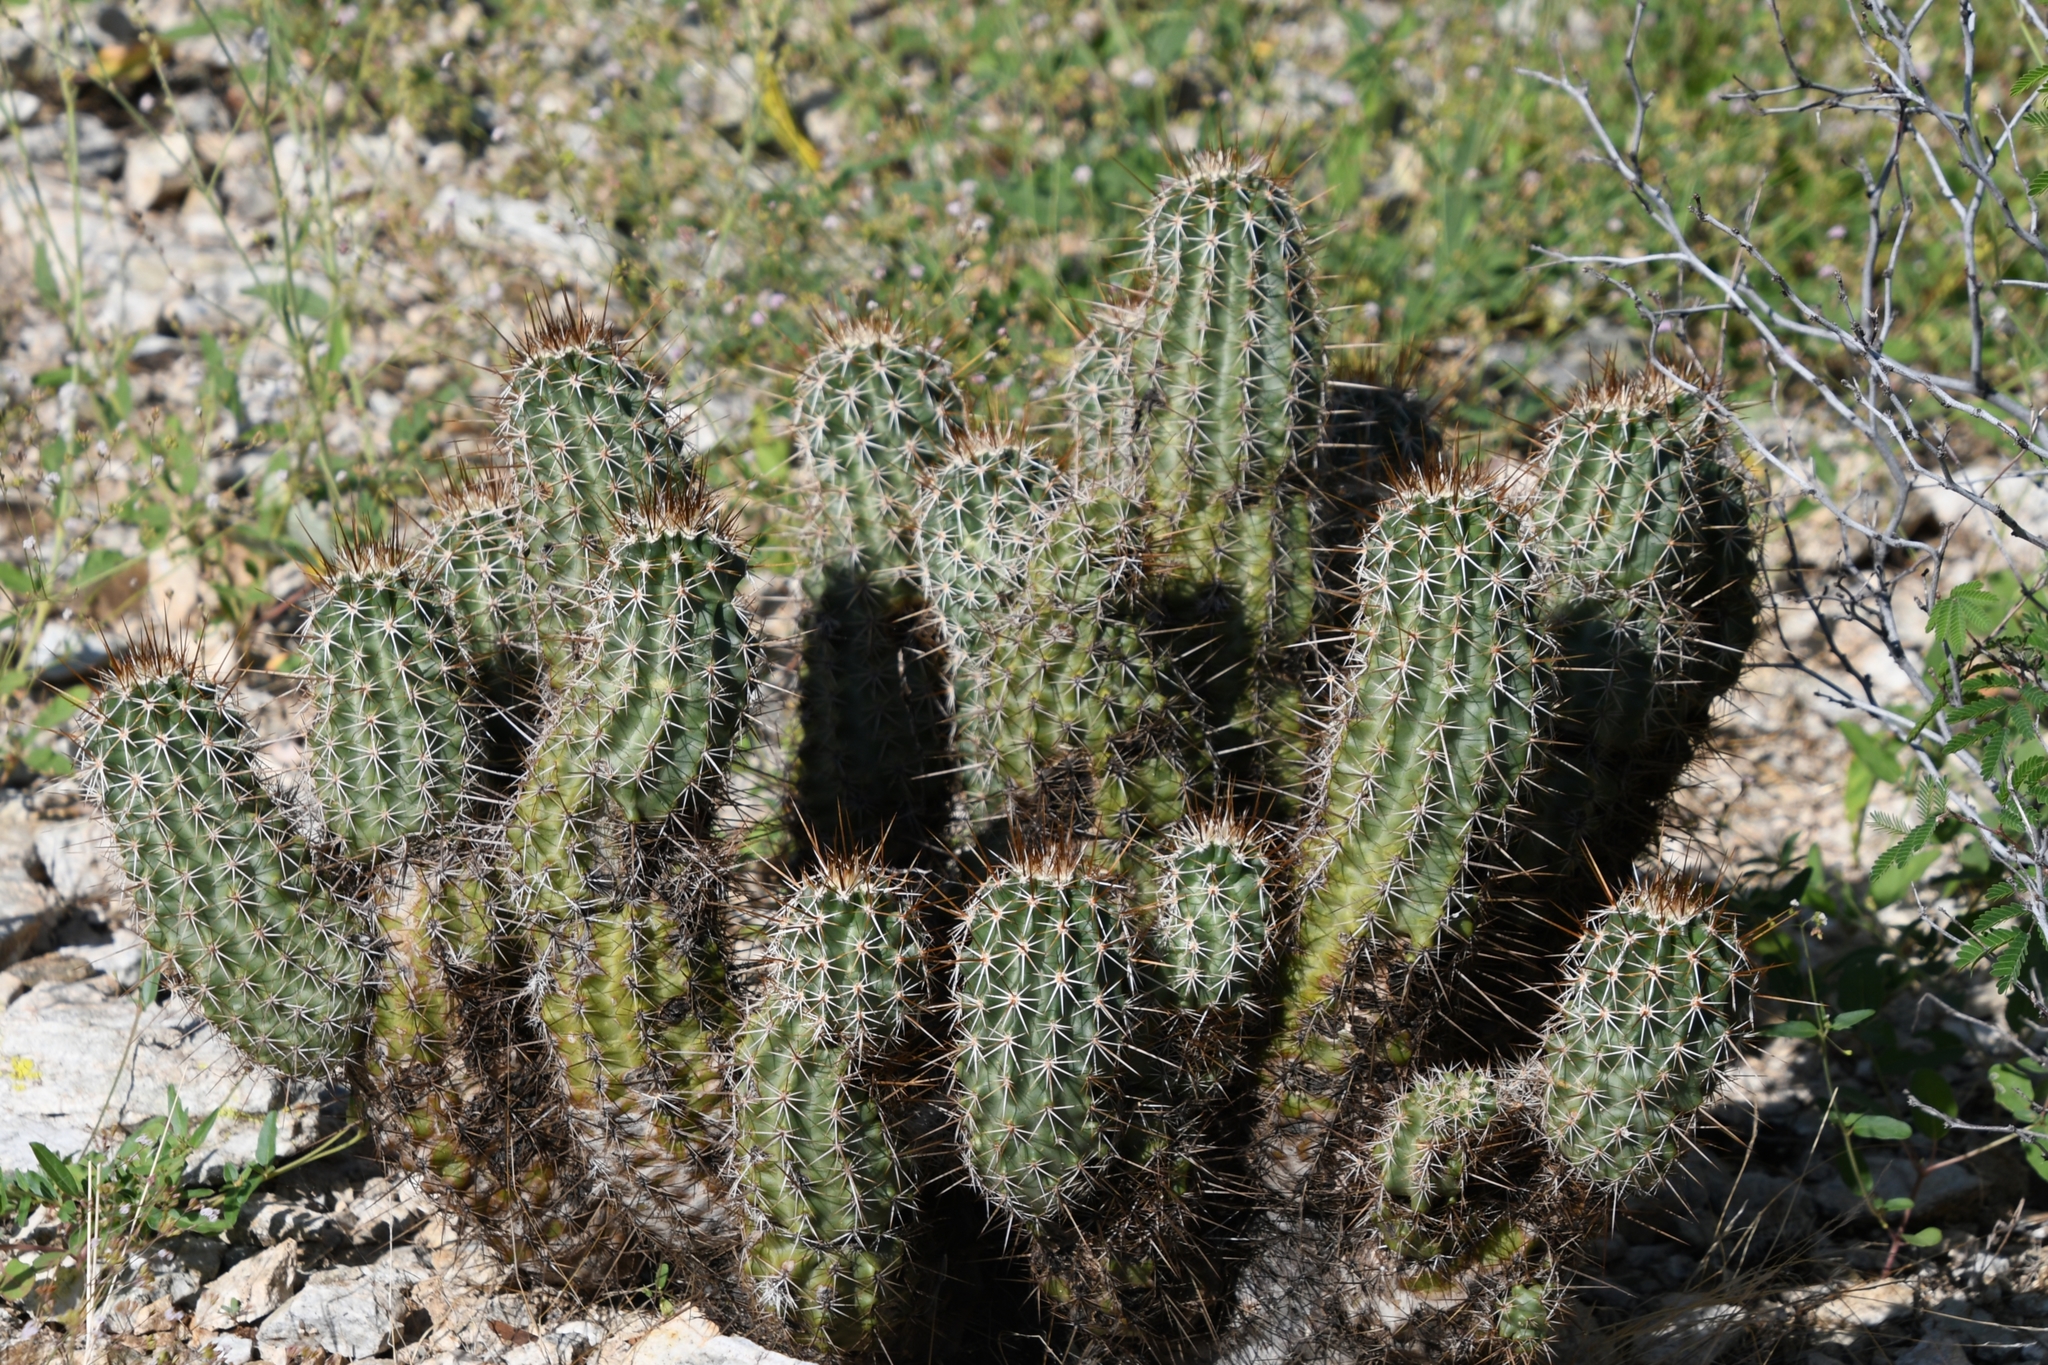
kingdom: Plantae
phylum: Tracheophyta
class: Magnoliopsida
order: Caryophyllales
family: Cactaceae
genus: Echinocereus
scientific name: Echinocereus fasciculatus
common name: Bundle hedgehog
